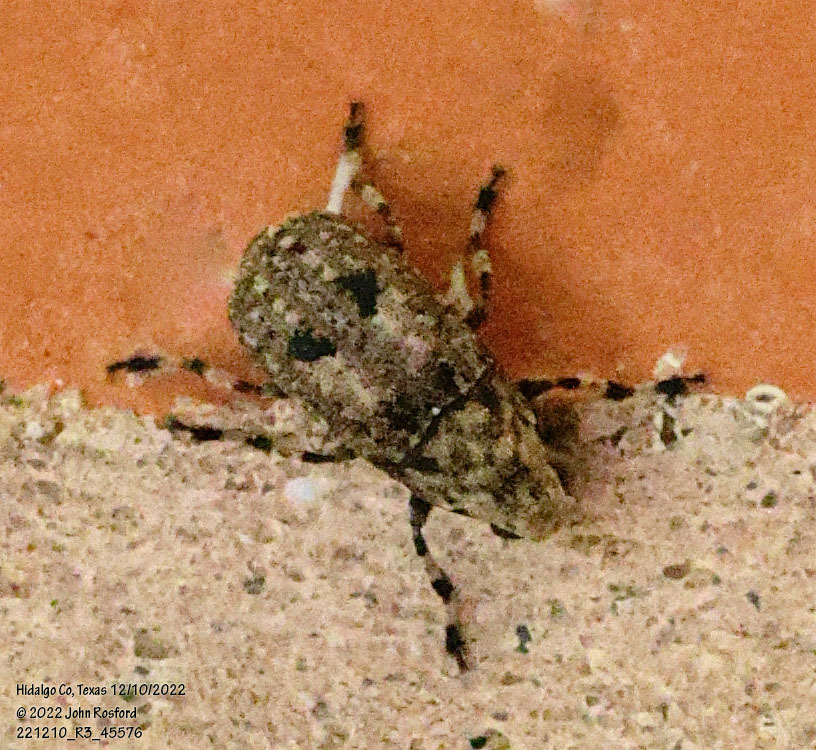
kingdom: Animalia
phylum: Arthropoda
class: Insecta
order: Coleoptera
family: Anthribidae
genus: Euparius
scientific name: Euparius marmoreus
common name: Marbled fungus weevil
